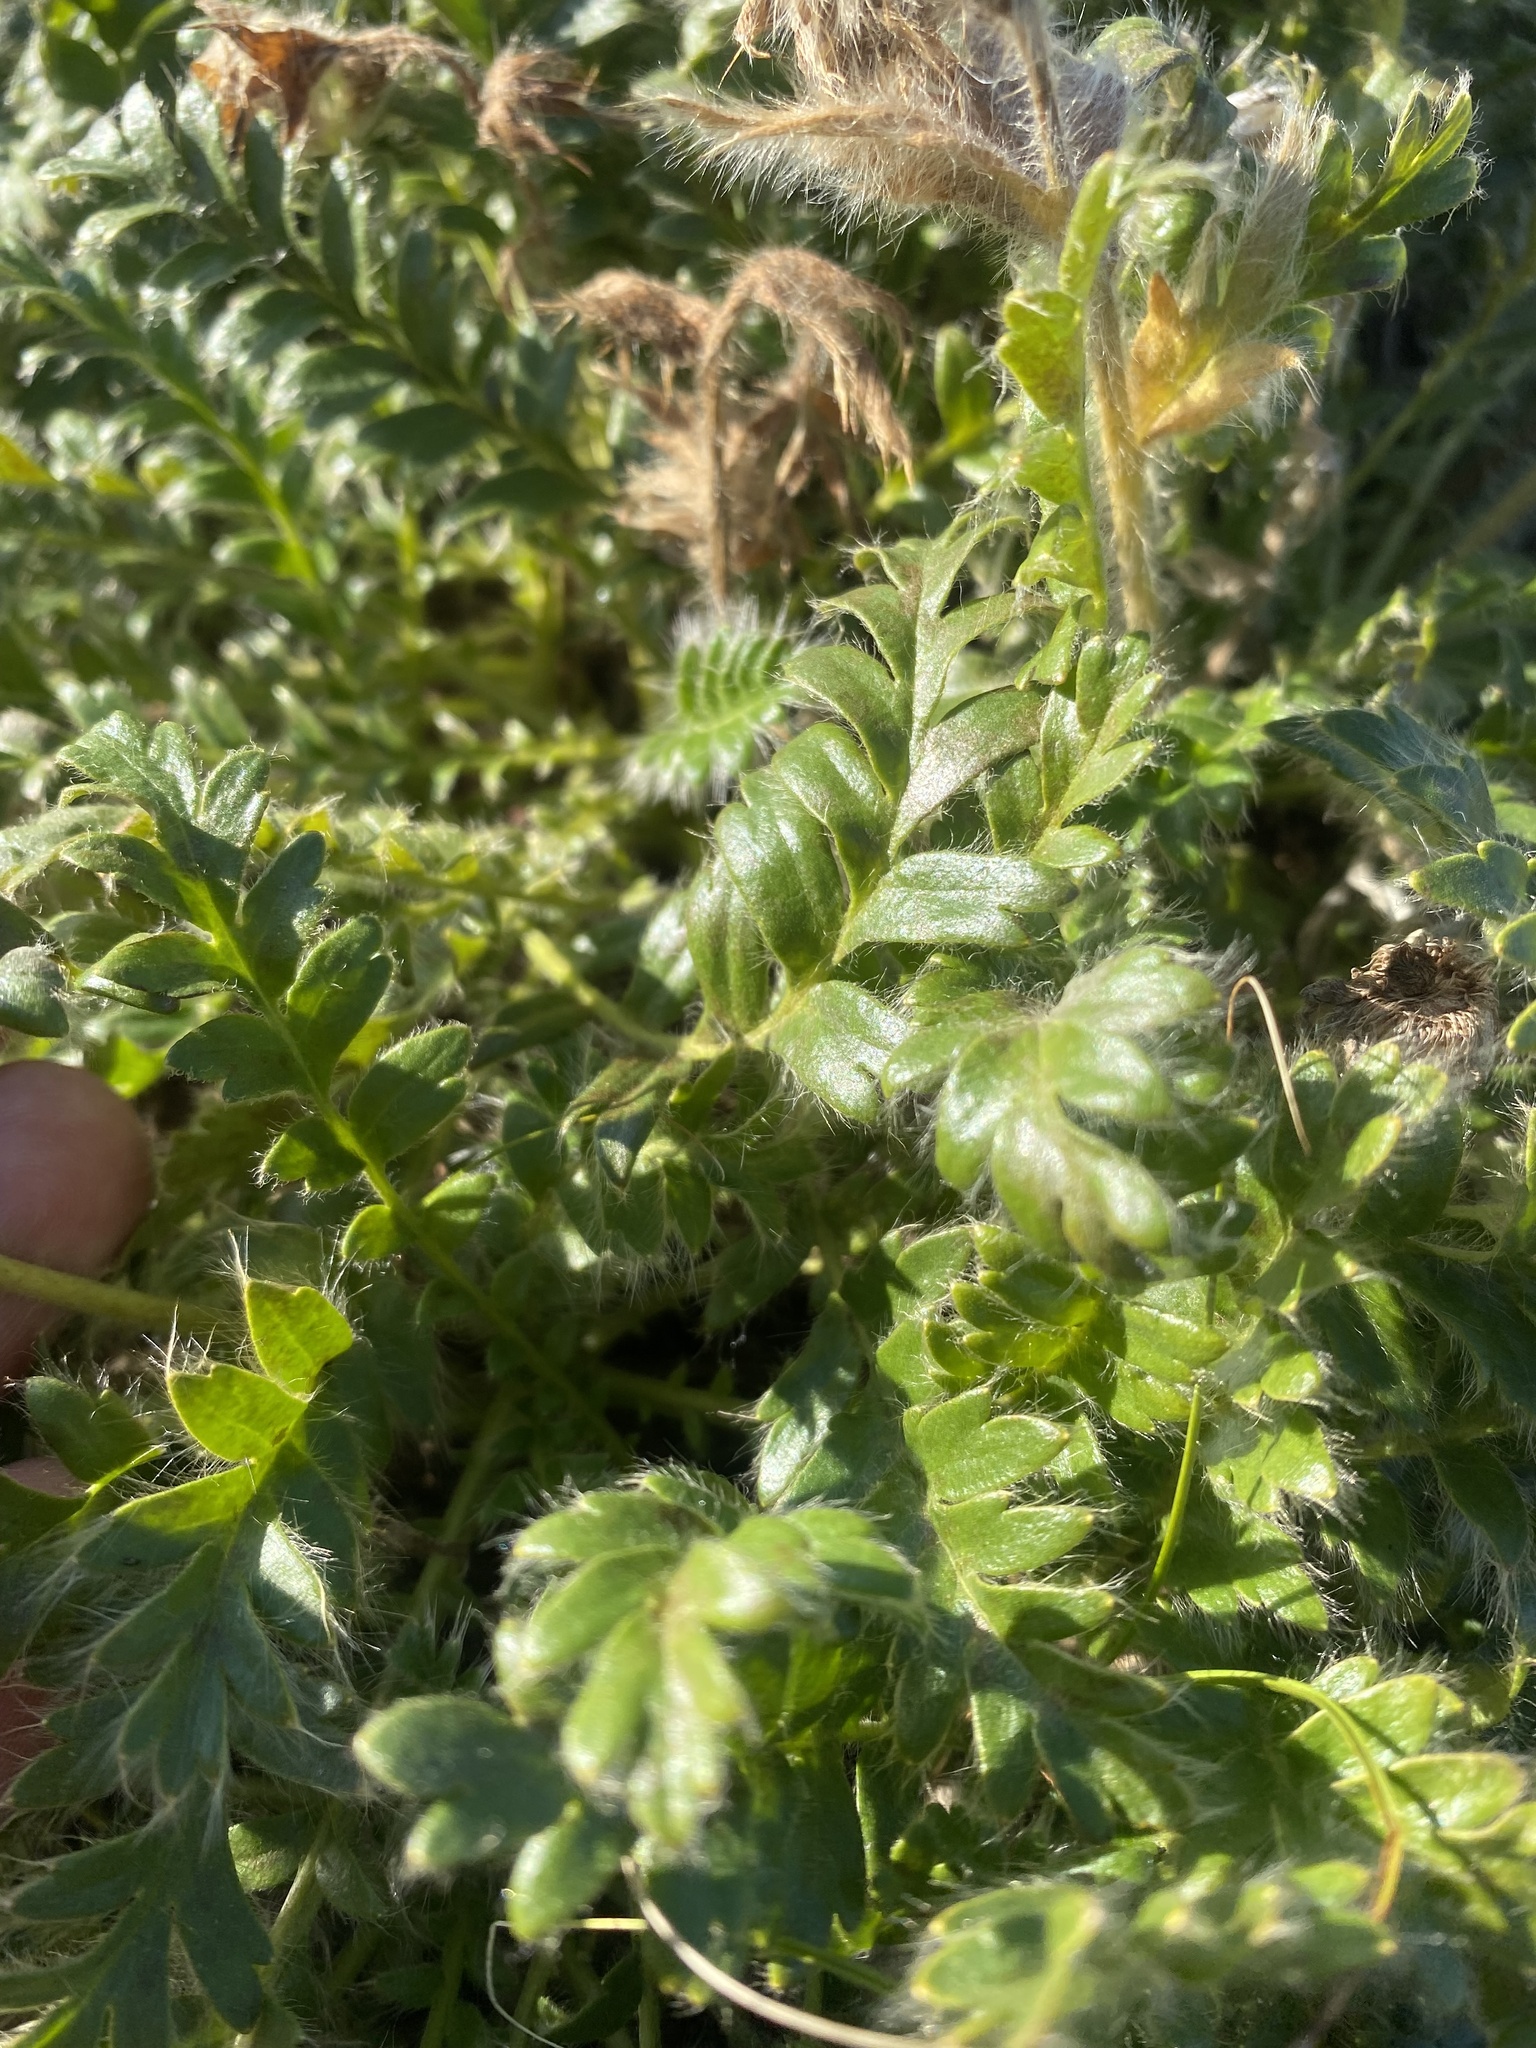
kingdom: Plantae
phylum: Tracheophyta
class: Magnoliopsida
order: Rosales
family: Rosaceae
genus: Geum
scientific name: Geum glaciale
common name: Glacier avens
